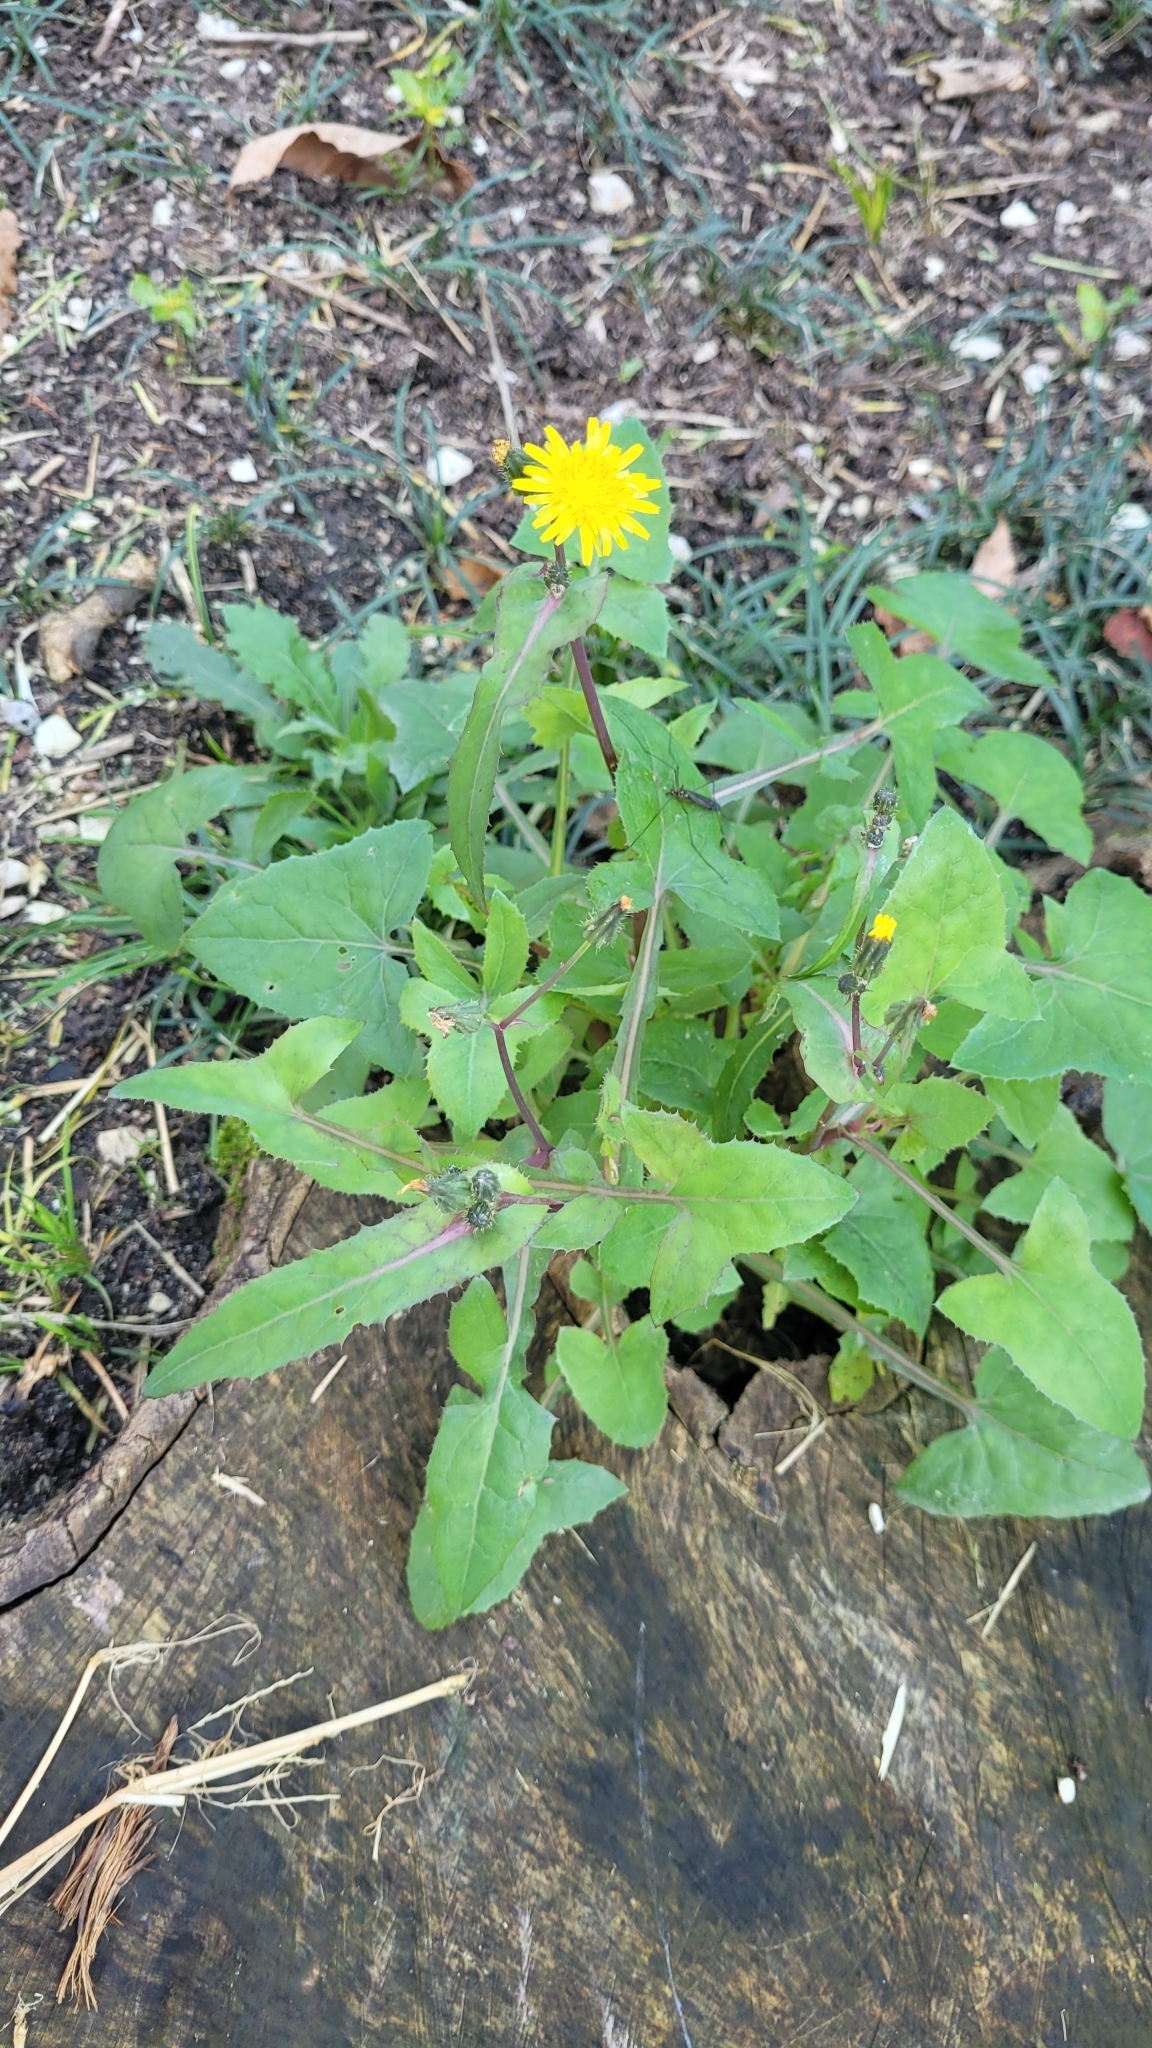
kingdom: Plantae
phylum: Tracheophyta
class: Magnoliopsida
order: Asterales
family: Asteraceae
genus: Sonchus
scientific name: Sonchus oleraceus
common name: Common sowthistle
